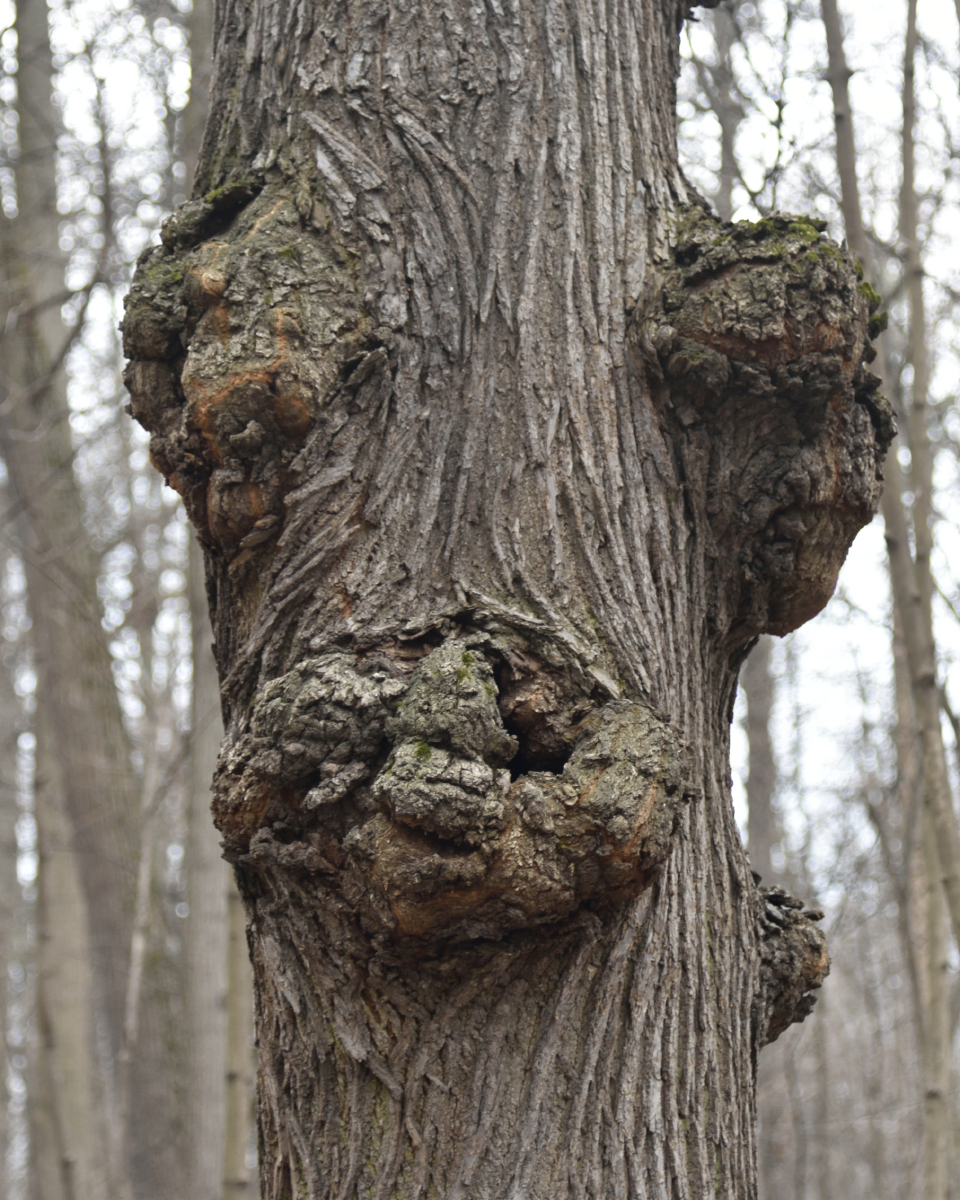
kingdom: Bacteria
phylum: Proteobacteria
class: Alphaproteobacteria
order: Rhizobiales
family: Rhizobiaceae
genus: Rhizobium
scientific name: Rhizobium Agrobacterium radiobacter
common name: Bacterial crown gall
